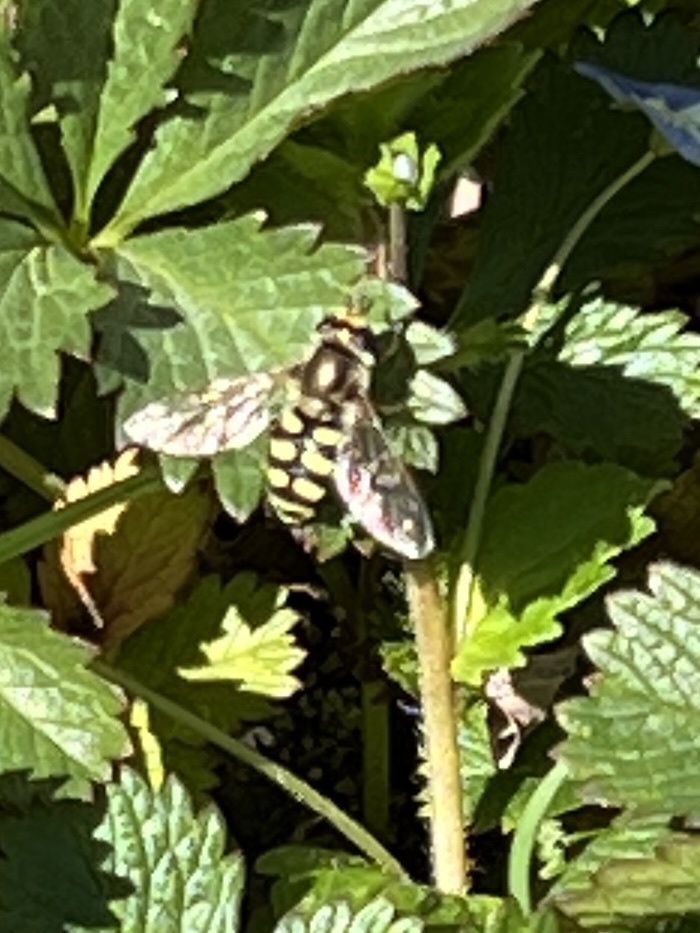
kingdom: Animalia
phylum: Arthropoda
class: Insecta
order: Diptera
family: Syrphidae
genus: Eupeodes
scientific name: Eupeodes corollae
